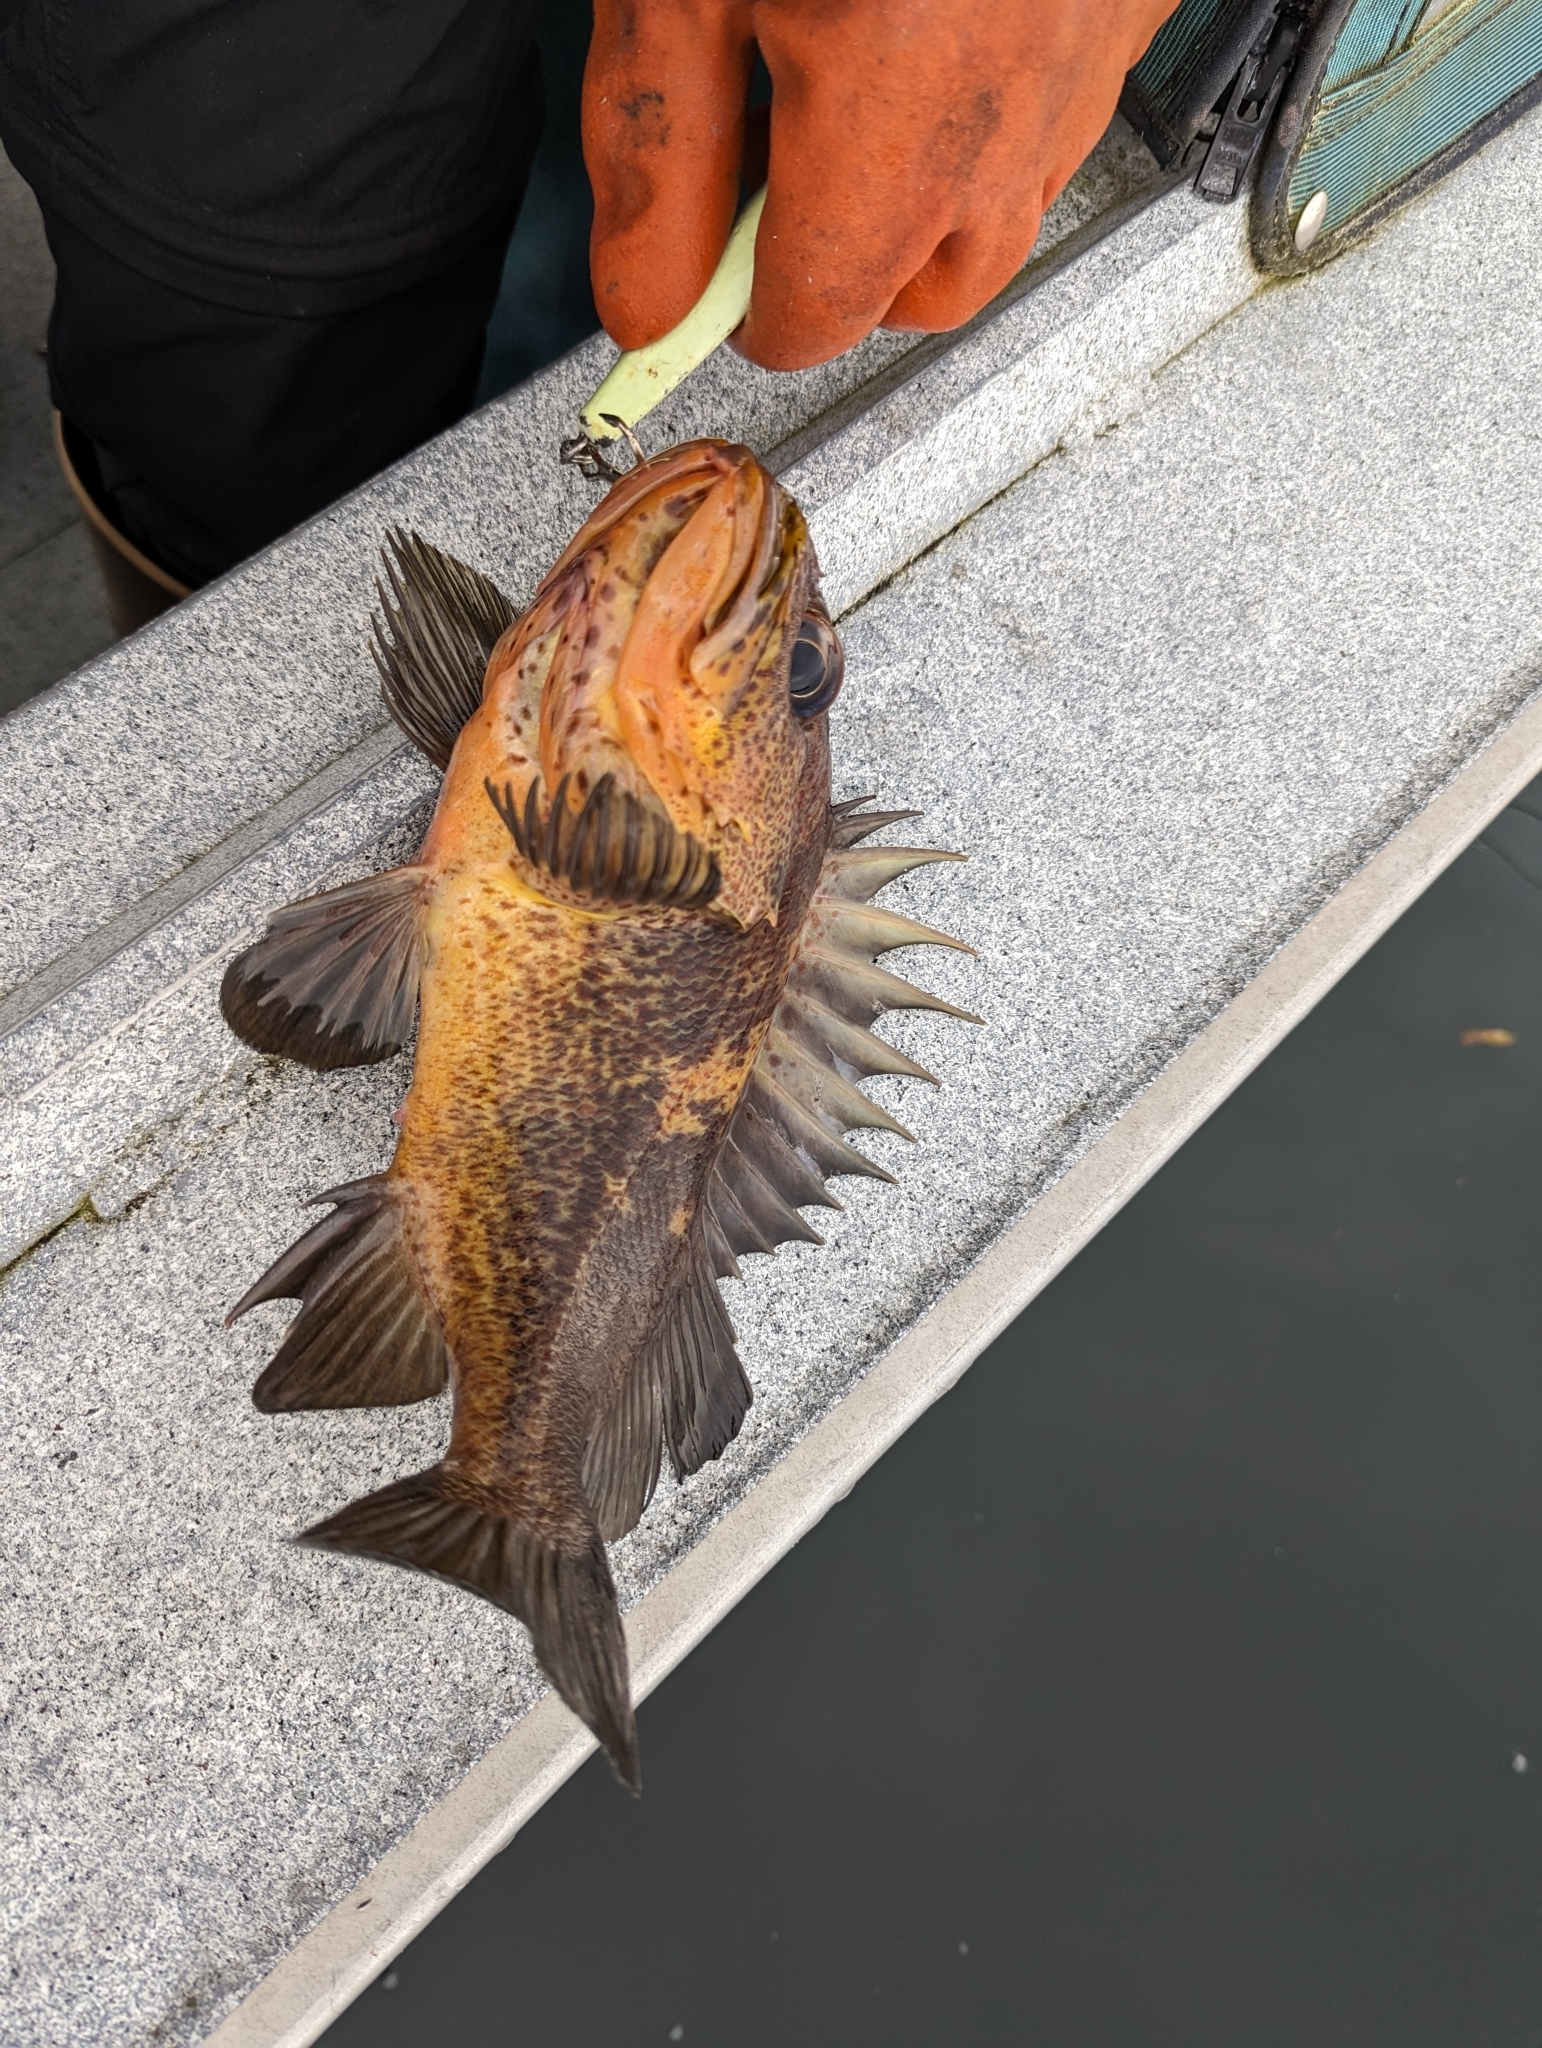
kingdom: Animalia
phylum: Chordata
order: Scorpaeniformes
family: Sebastidae
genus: Sebastes
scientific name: Sebastes maliger
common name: Quillback rockfish
